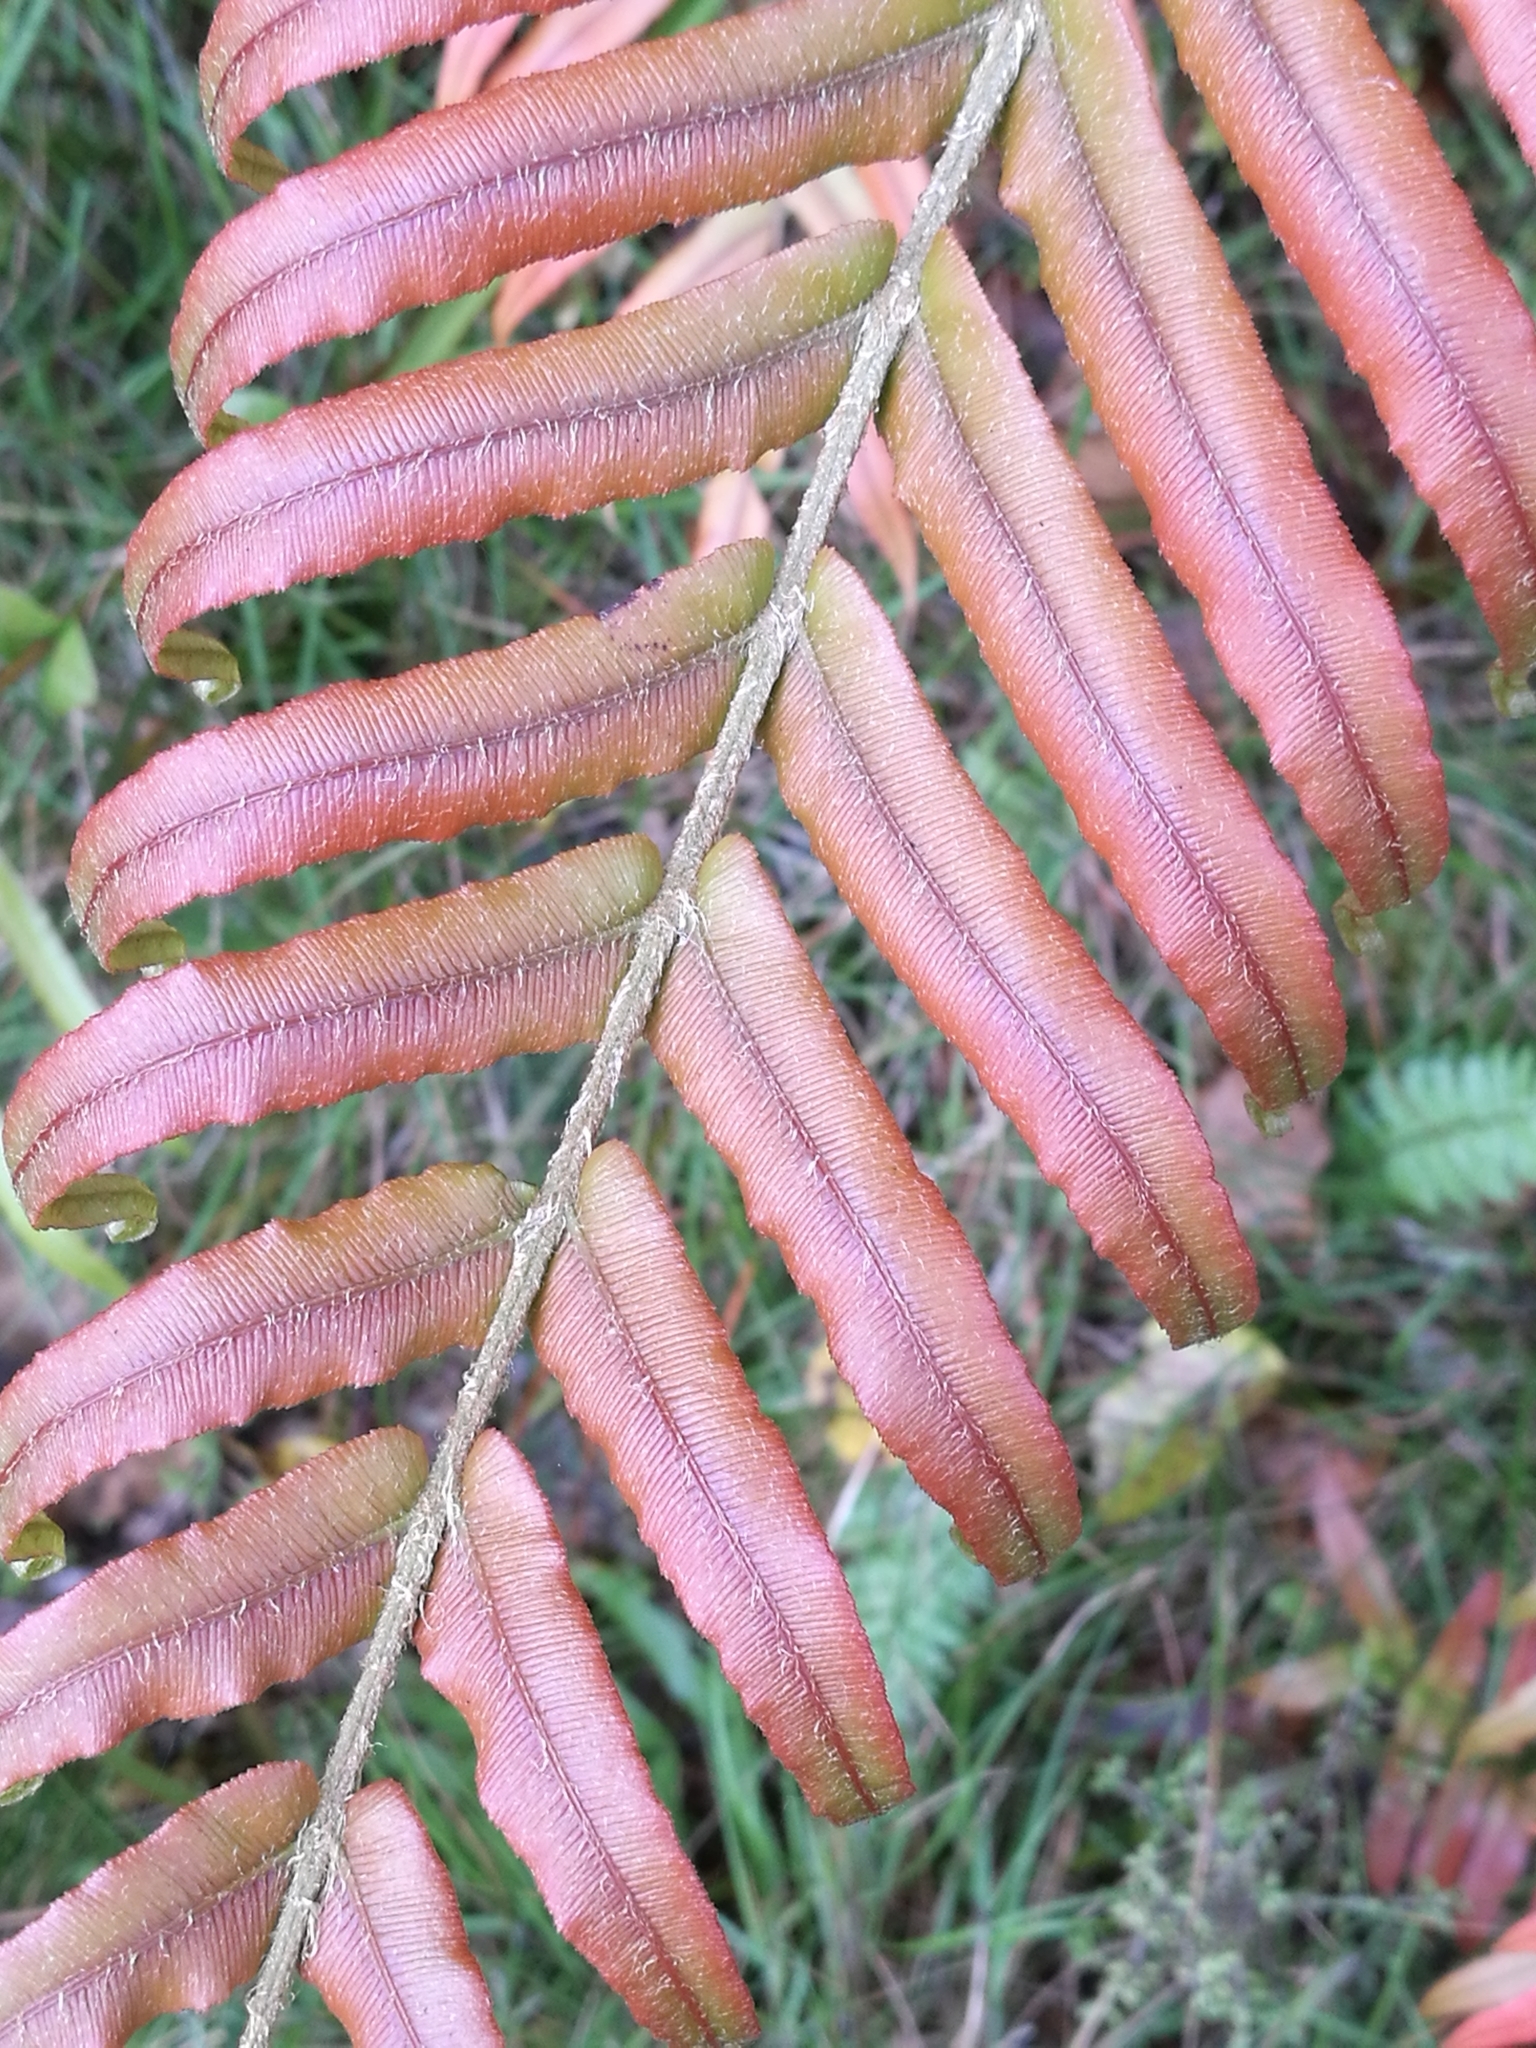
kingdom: Plantae
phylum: Tracheophyta
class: Polypodiopsida
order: Polypodiales
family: Blechnaceae
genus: Parablechnum
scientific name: Parablechnum novae-zelandiae
